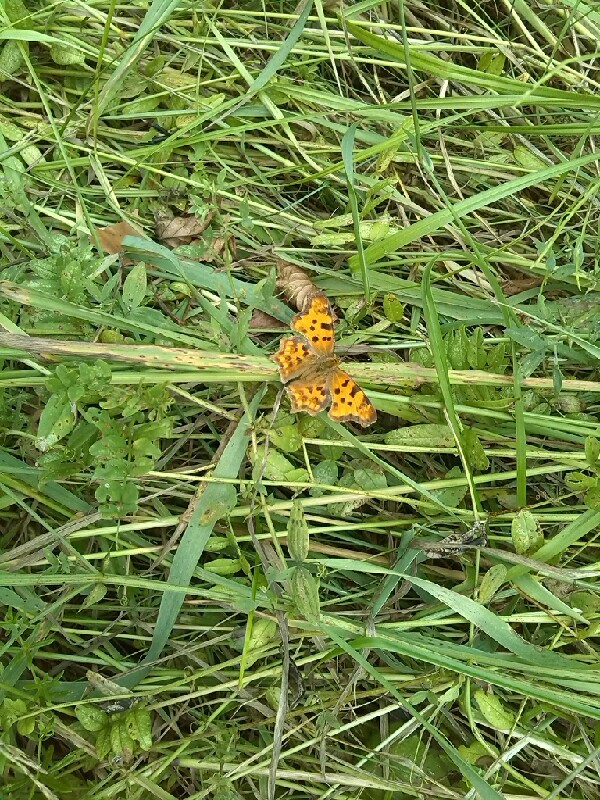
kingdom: Animalia
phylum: Arthropoda
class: Insecta
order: Lepidoptera
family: Nymphalidae
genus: Polygonia
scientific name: Polygonia c-album
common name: Comma
